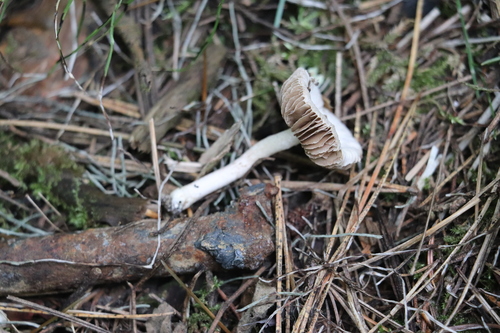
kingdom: Fungi
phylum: Basidiomycota
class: Agaricomycetes
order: Agaricales
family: Inocybaceae
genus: Inocybe
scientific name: Inocybe geophylla
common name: White fibrecap
